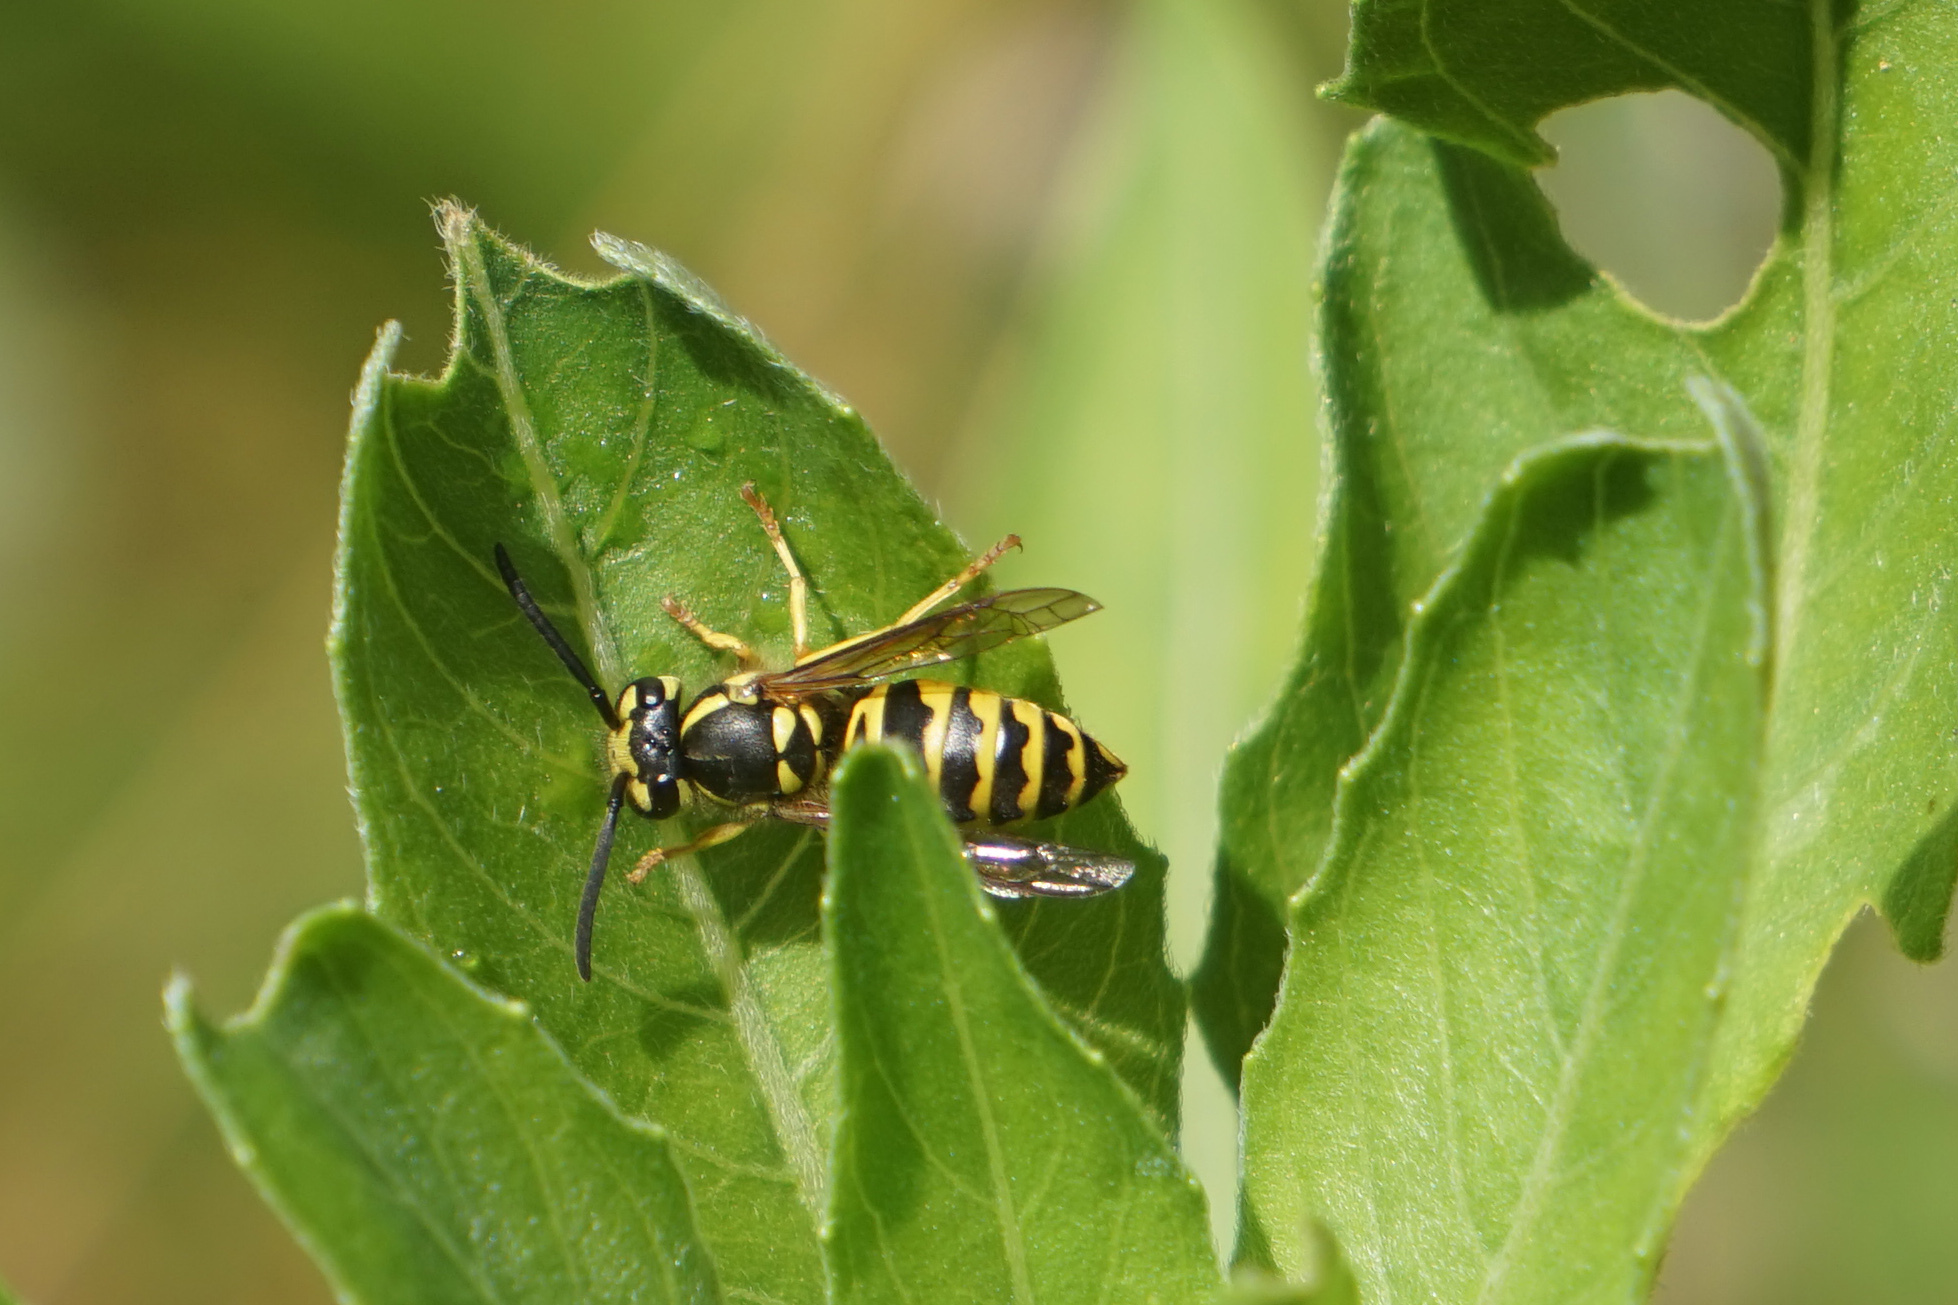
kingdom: Animalia
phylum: Arthropoda
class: Insecta
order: Hymenoptera
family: Vespidae
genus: Vespula
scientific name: Vespula maculifrons
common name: Eastern yellowjacket
